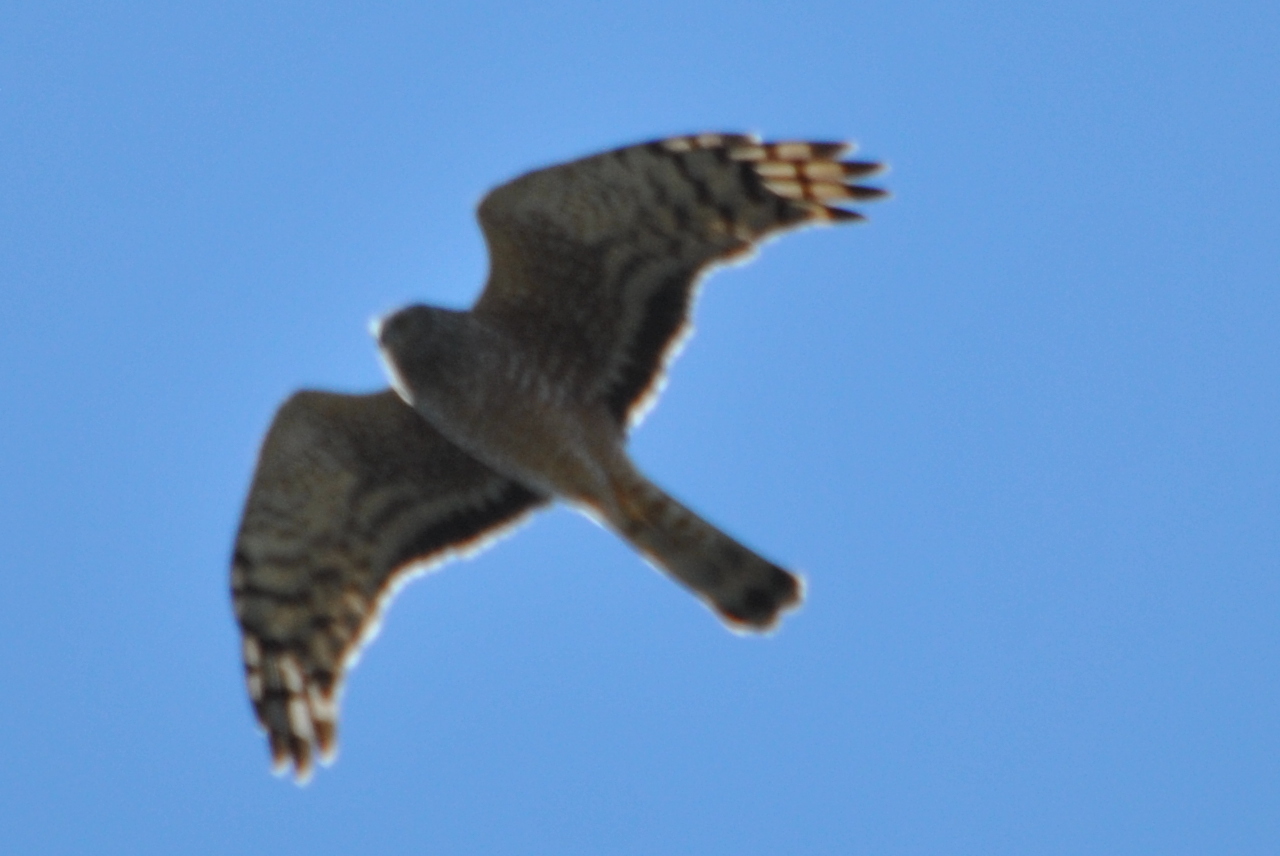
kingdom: Animalia
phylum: Chordata
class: Aves
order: Accipitriformes
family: Accipitridae
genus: Circus
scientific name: Circus cinereus
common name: Cinereous harrier
